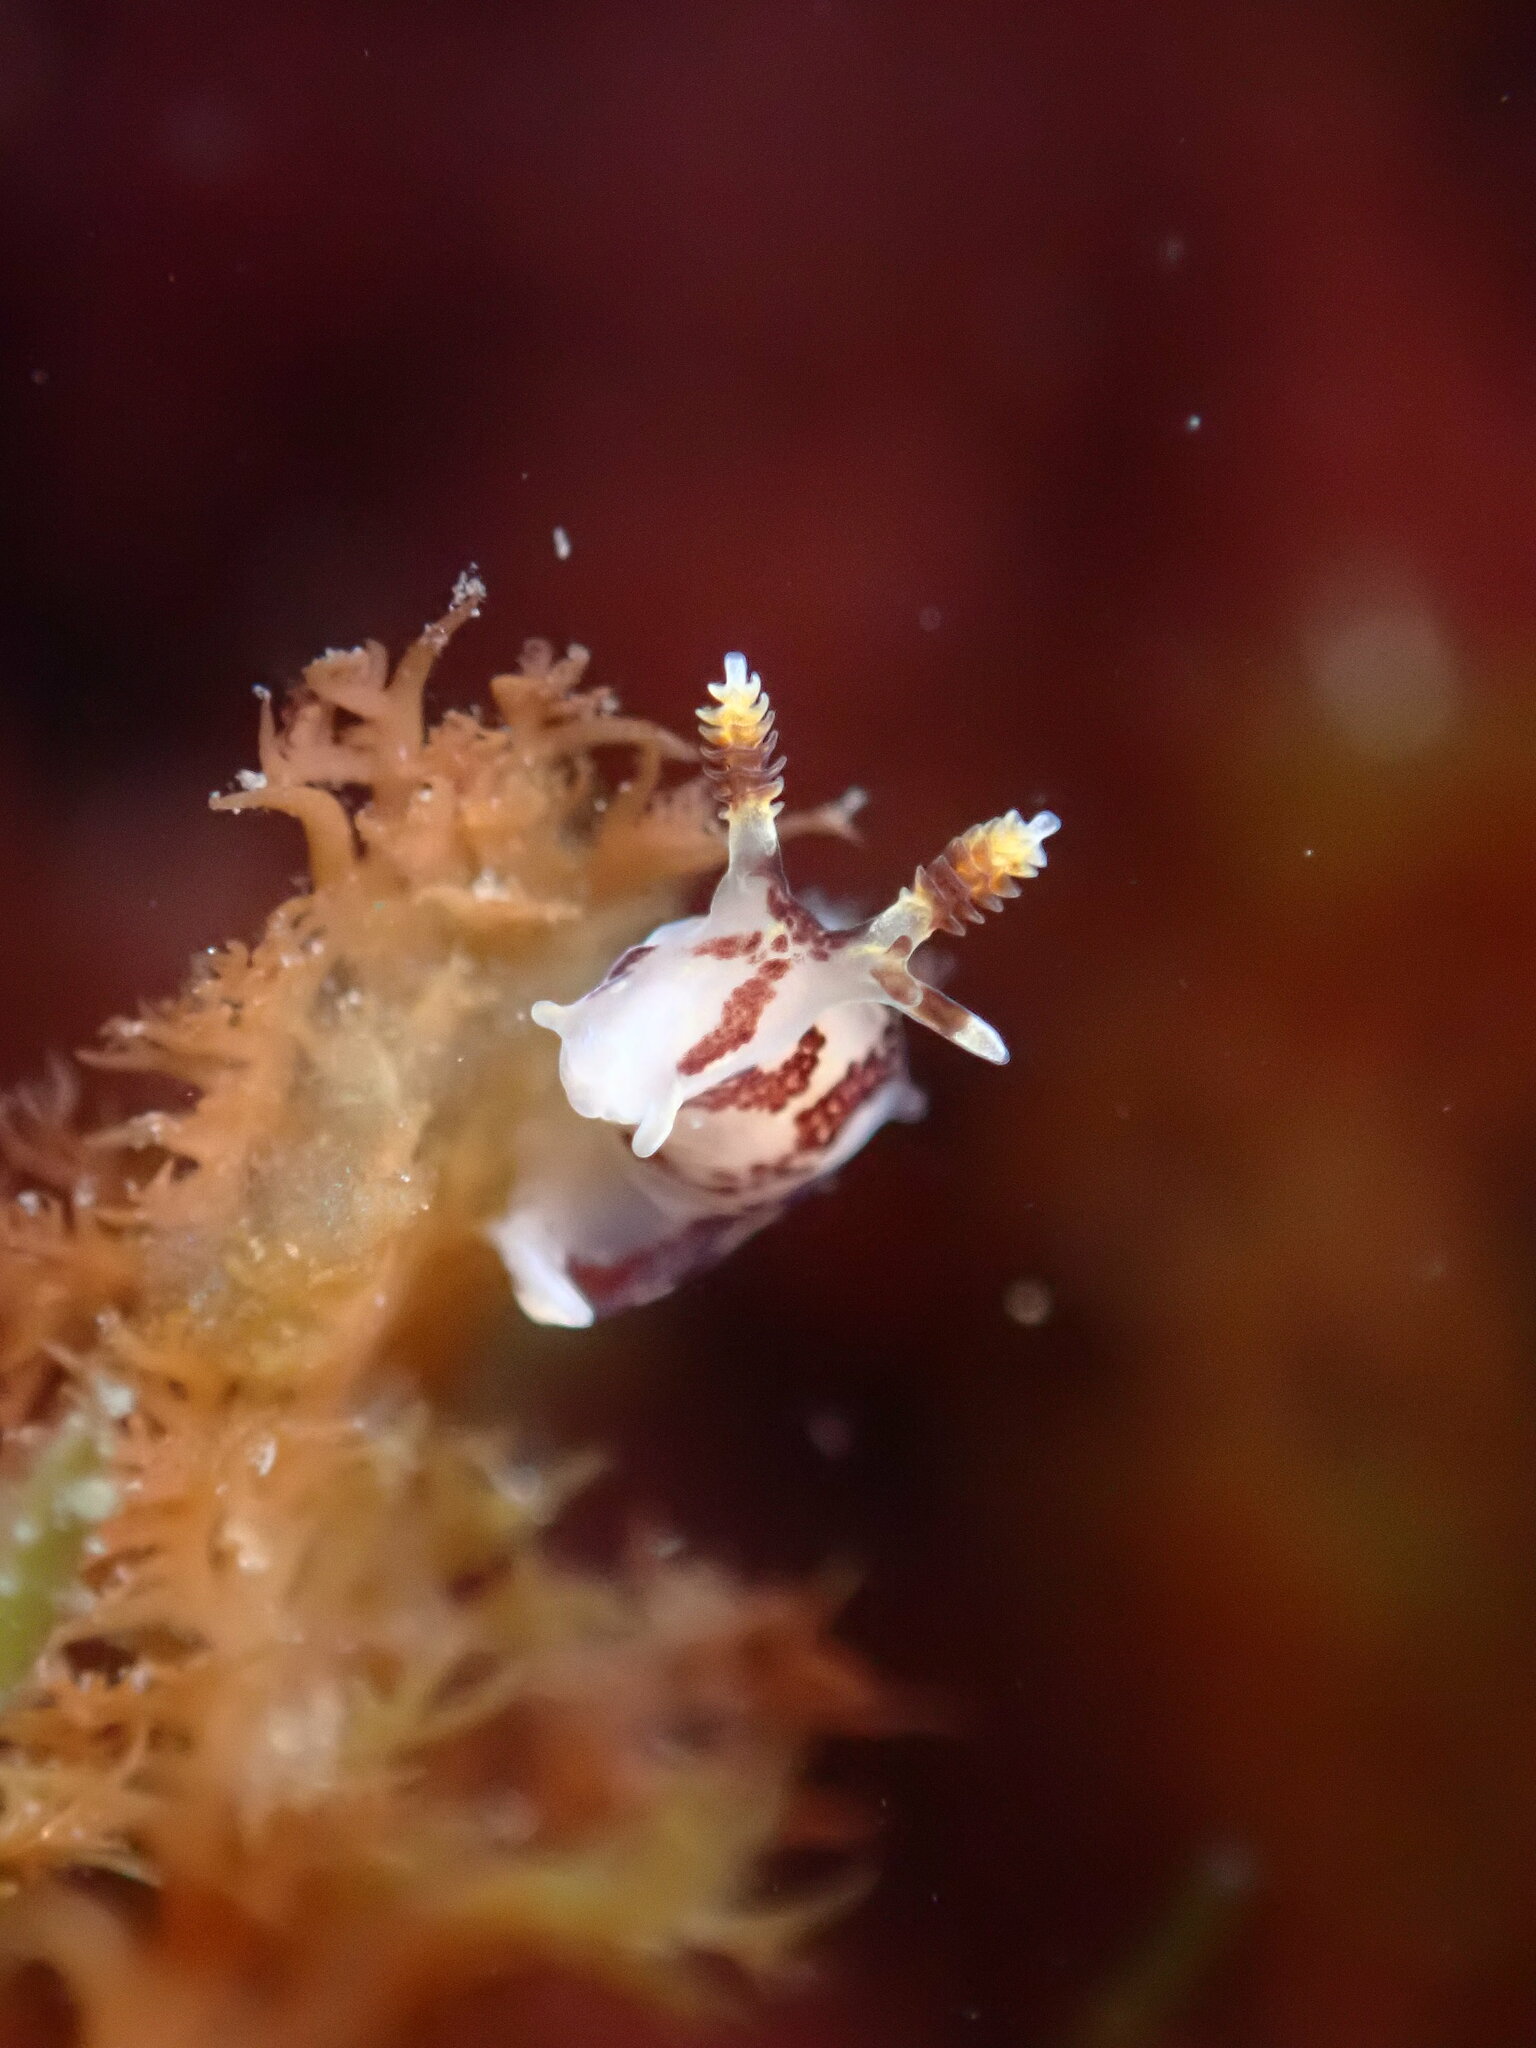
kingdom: Animalia
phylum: Mollusca
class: Gastropoda
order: Nudibranchia
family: Goniodorididae
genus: Ancula
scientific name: Ancula lentiginosa
